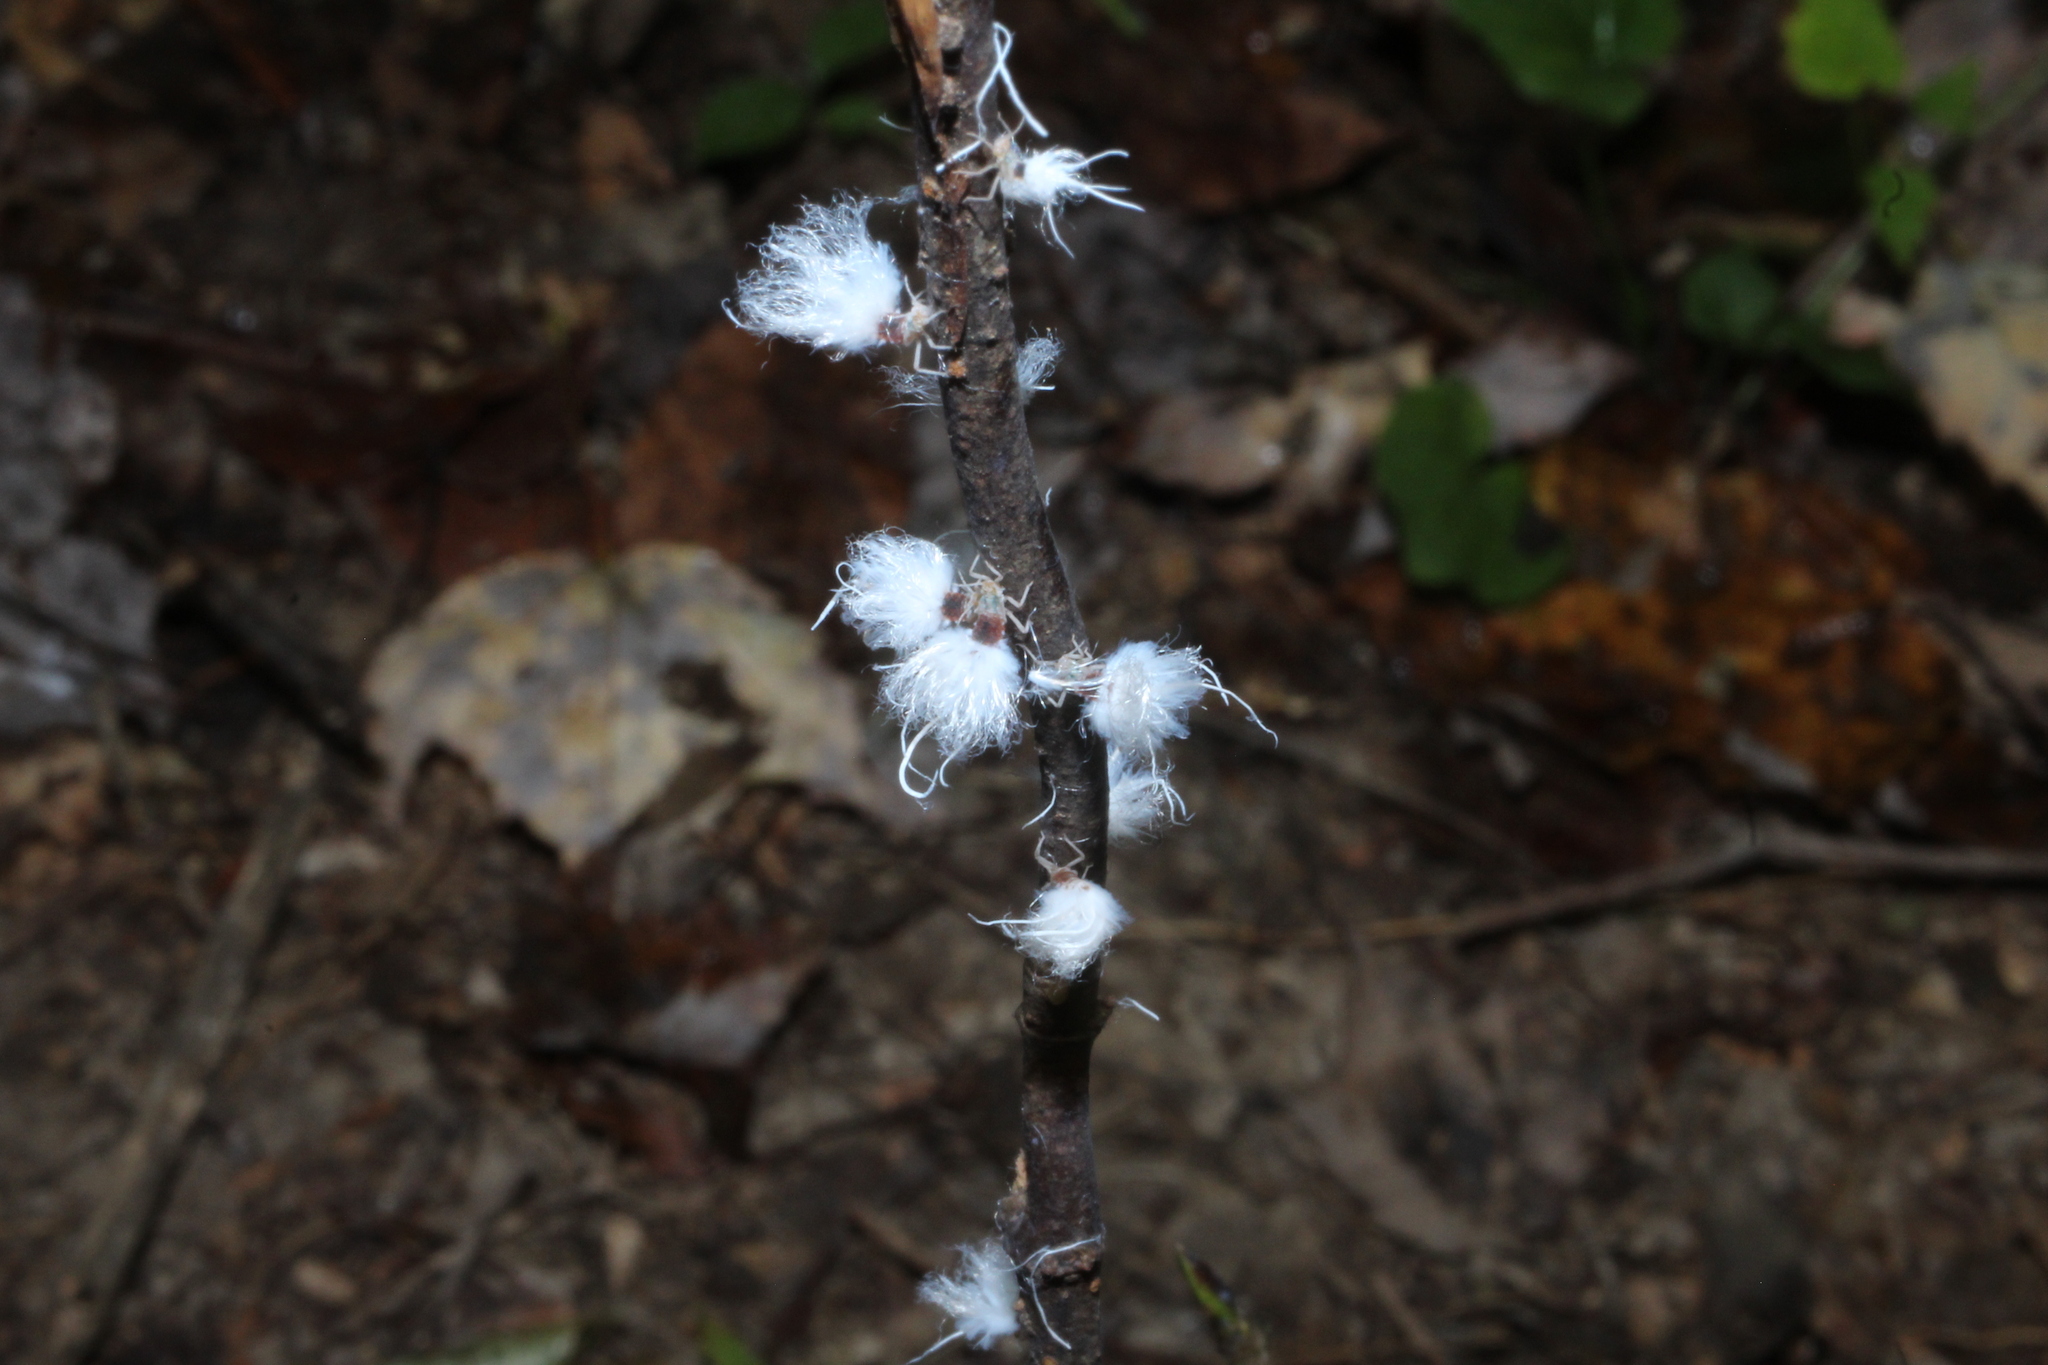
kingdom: Animalia
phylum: Arthropoda
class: Insecta
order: Hemiptera
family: Aphididae
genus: Grylloprociphilus
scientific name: Grylloprociphilus imbricator
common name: Beech blight aphid
